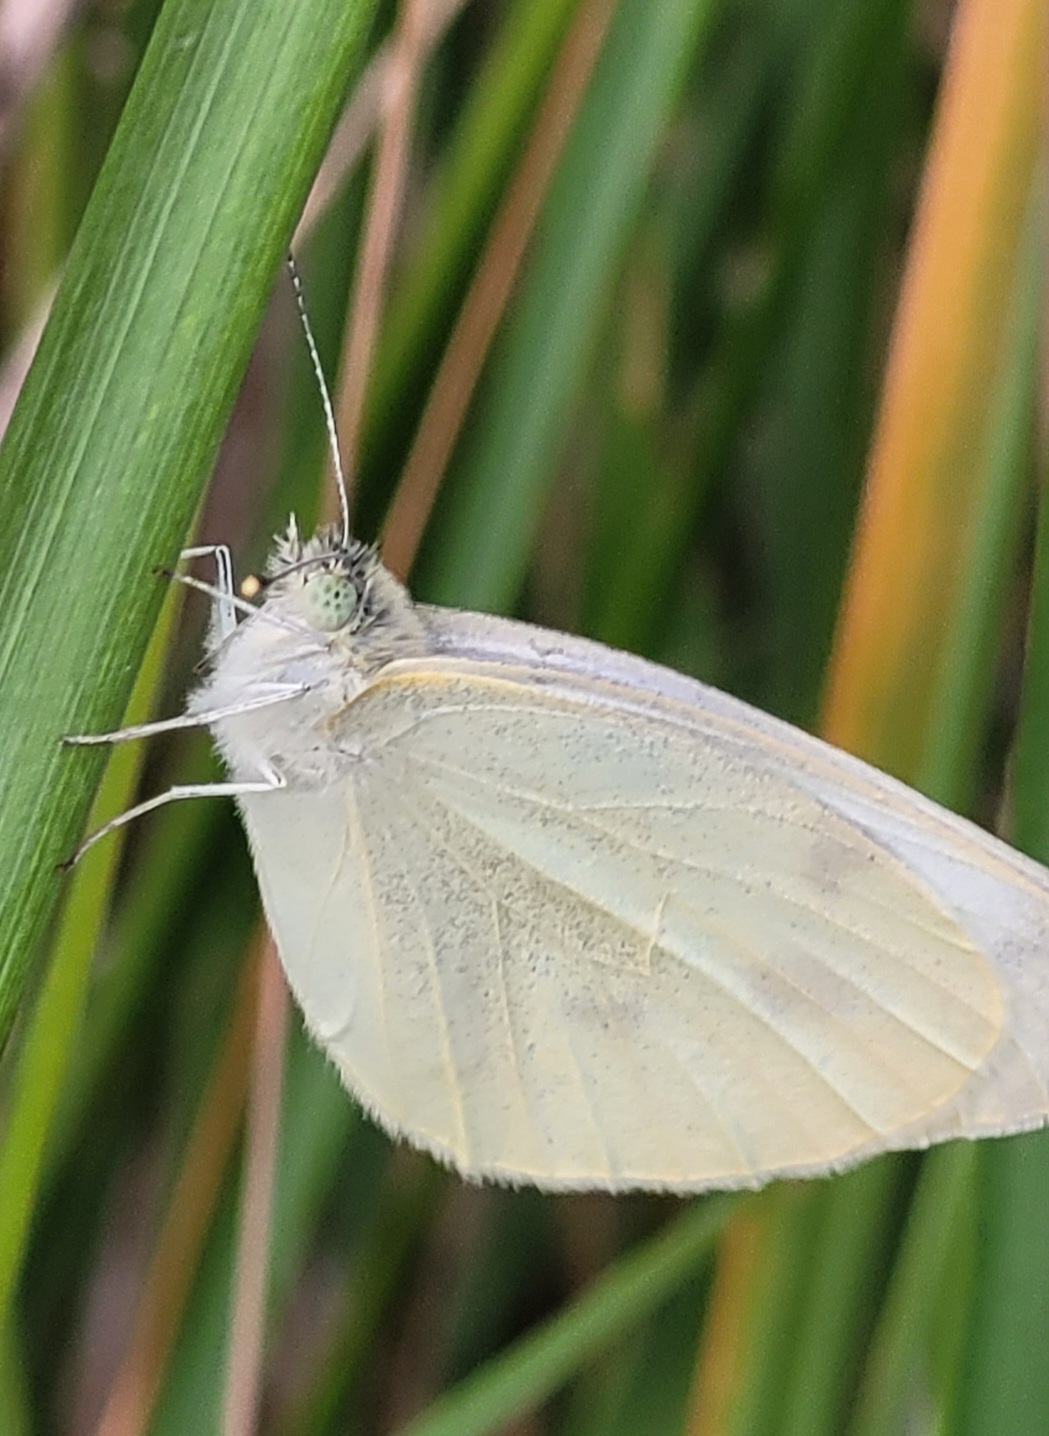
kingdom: Animalia
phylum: Arthropoda
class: Insecta
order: Lepidoptera
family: Pieridae
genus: Pieris
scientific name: Pieris rapae
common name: Small white
